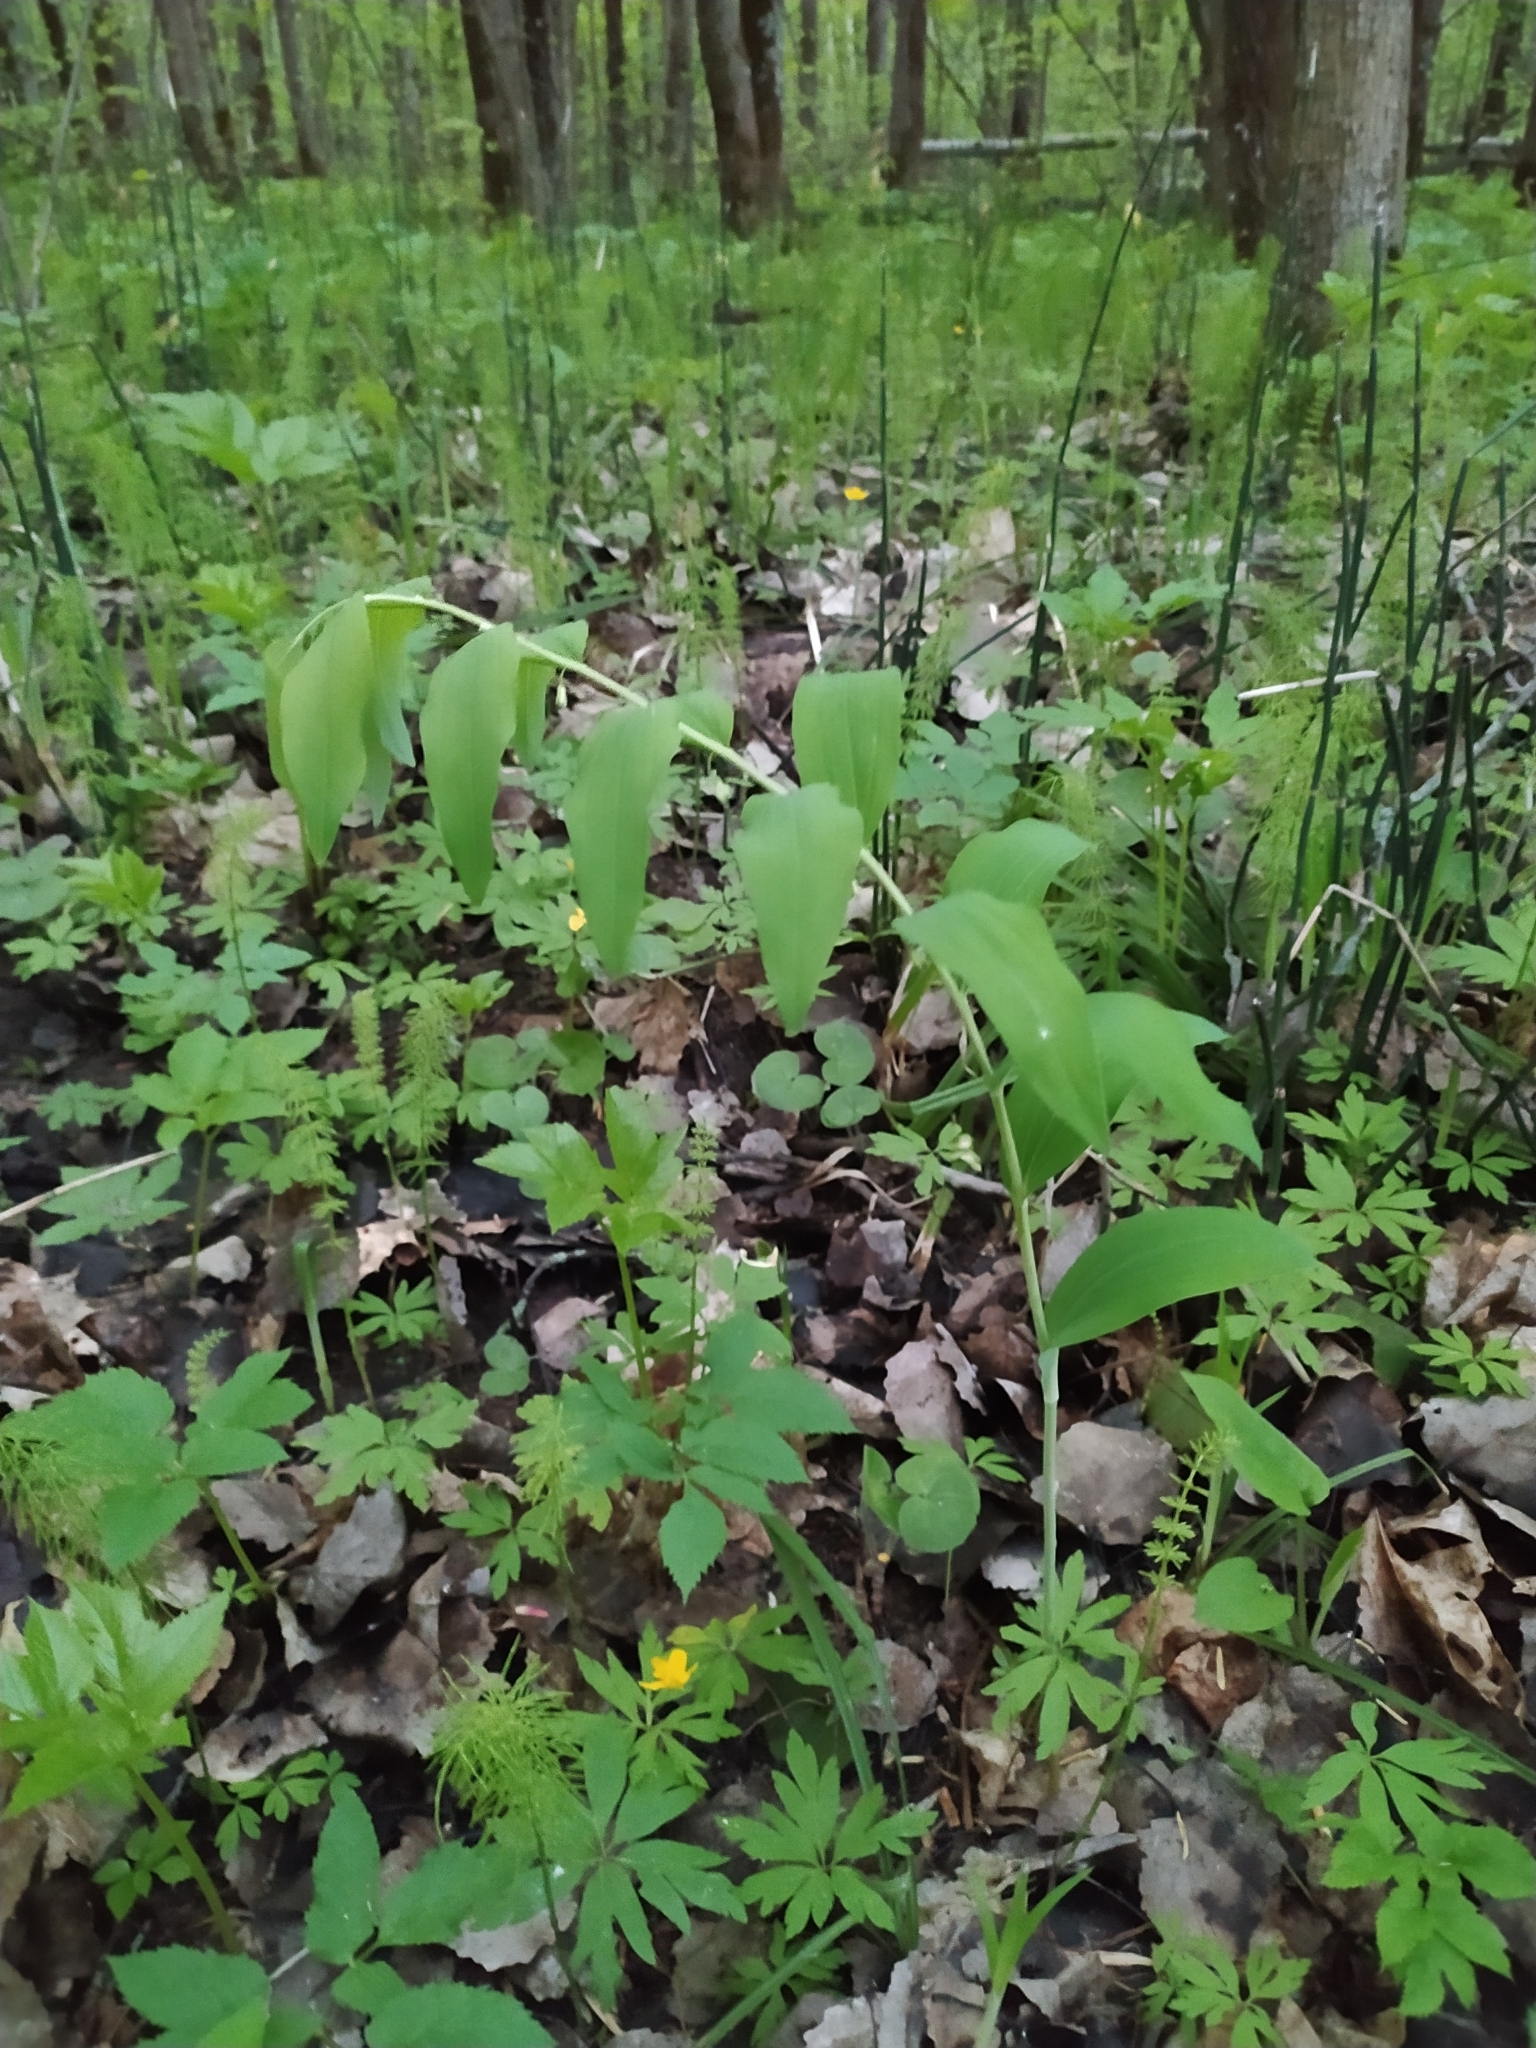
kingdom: Plantae
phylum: Tracheophyta
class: Liliopsida
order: Asparagales
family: Asparagaceae
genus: Polygonatum
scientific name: Polygonatum multiflorum
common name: Solomon's-seal
